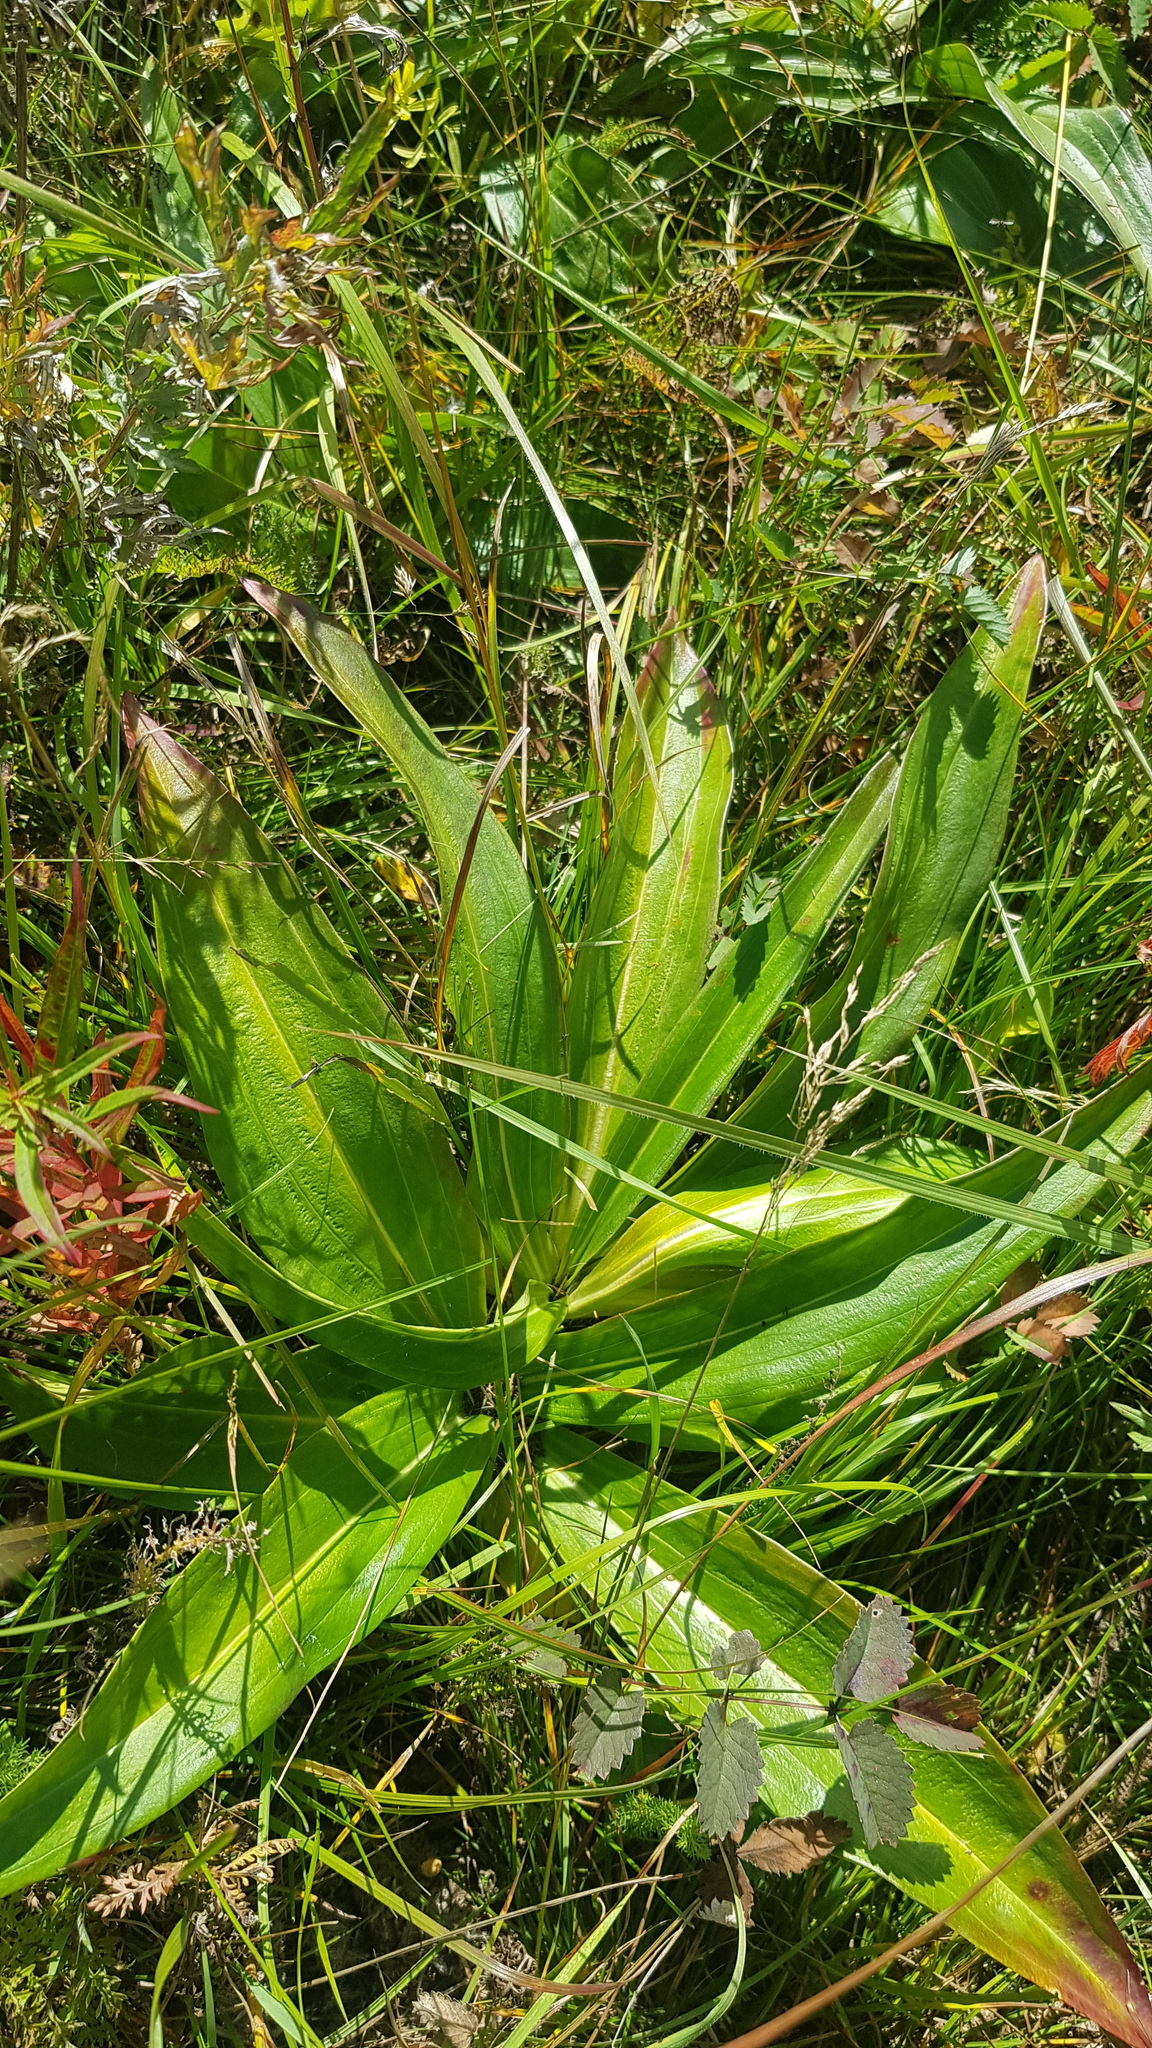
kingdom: Plantae
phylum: Tracheophyta
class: Magnoliopsida
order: Gentianales
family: Gentianaceae
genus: Gentiana
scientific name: Gentiana macrophylla
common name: Large-leaf gentian
